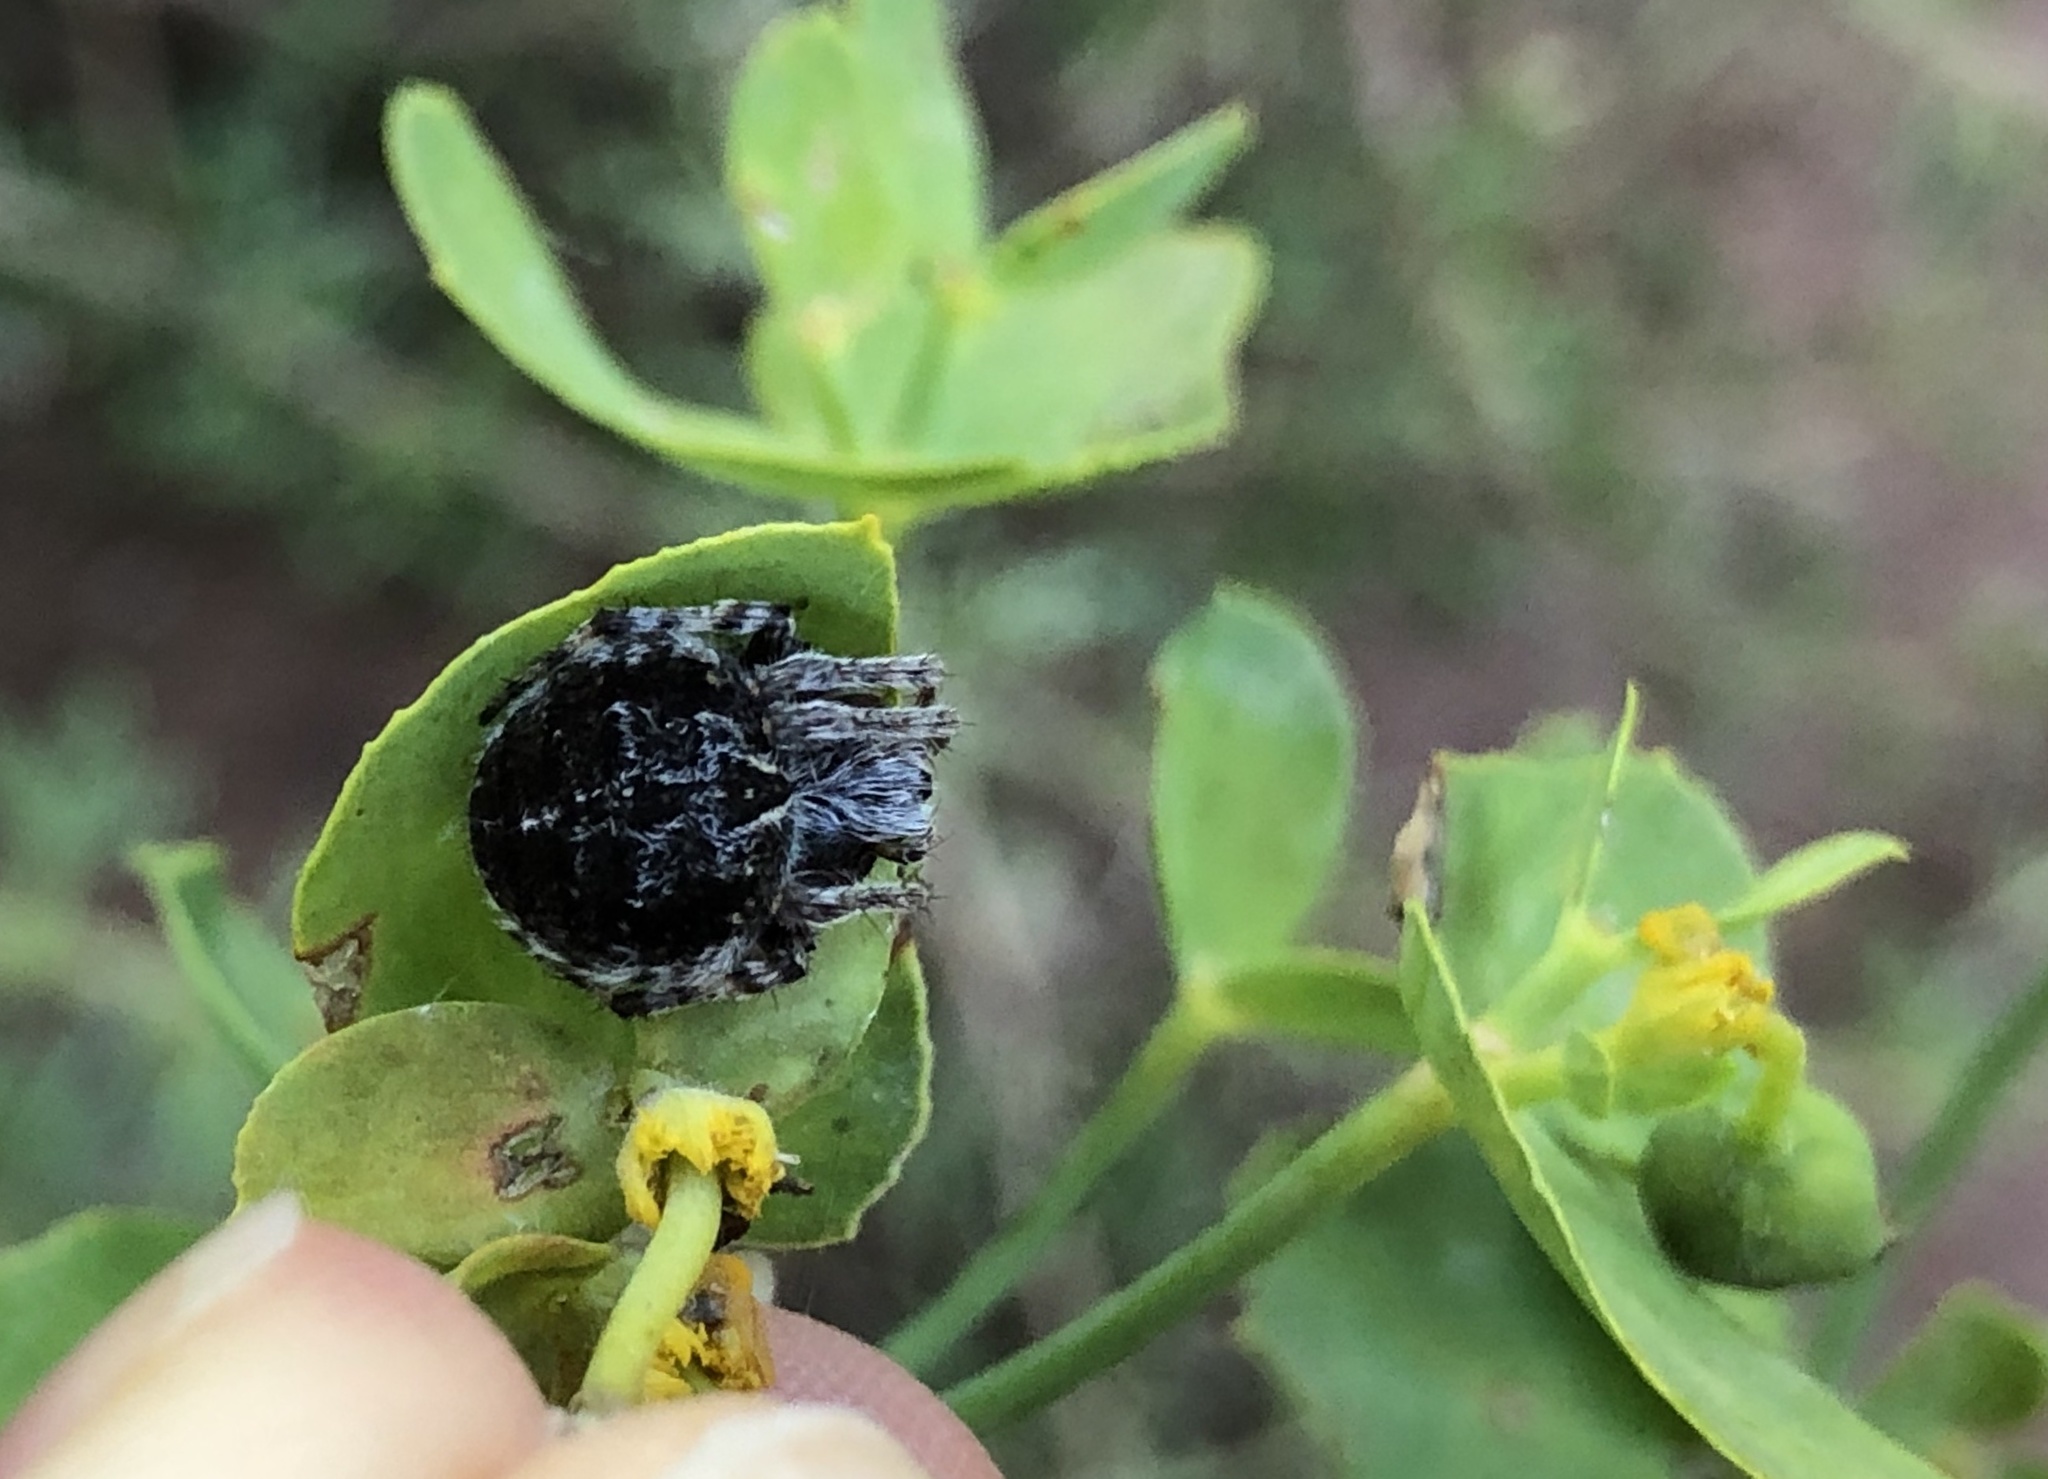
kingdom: Animalia
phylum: Arthropoda
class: Arachnida
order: Araneae
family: Araneidae
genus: Agalenatea
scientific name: Agalenatea redii
